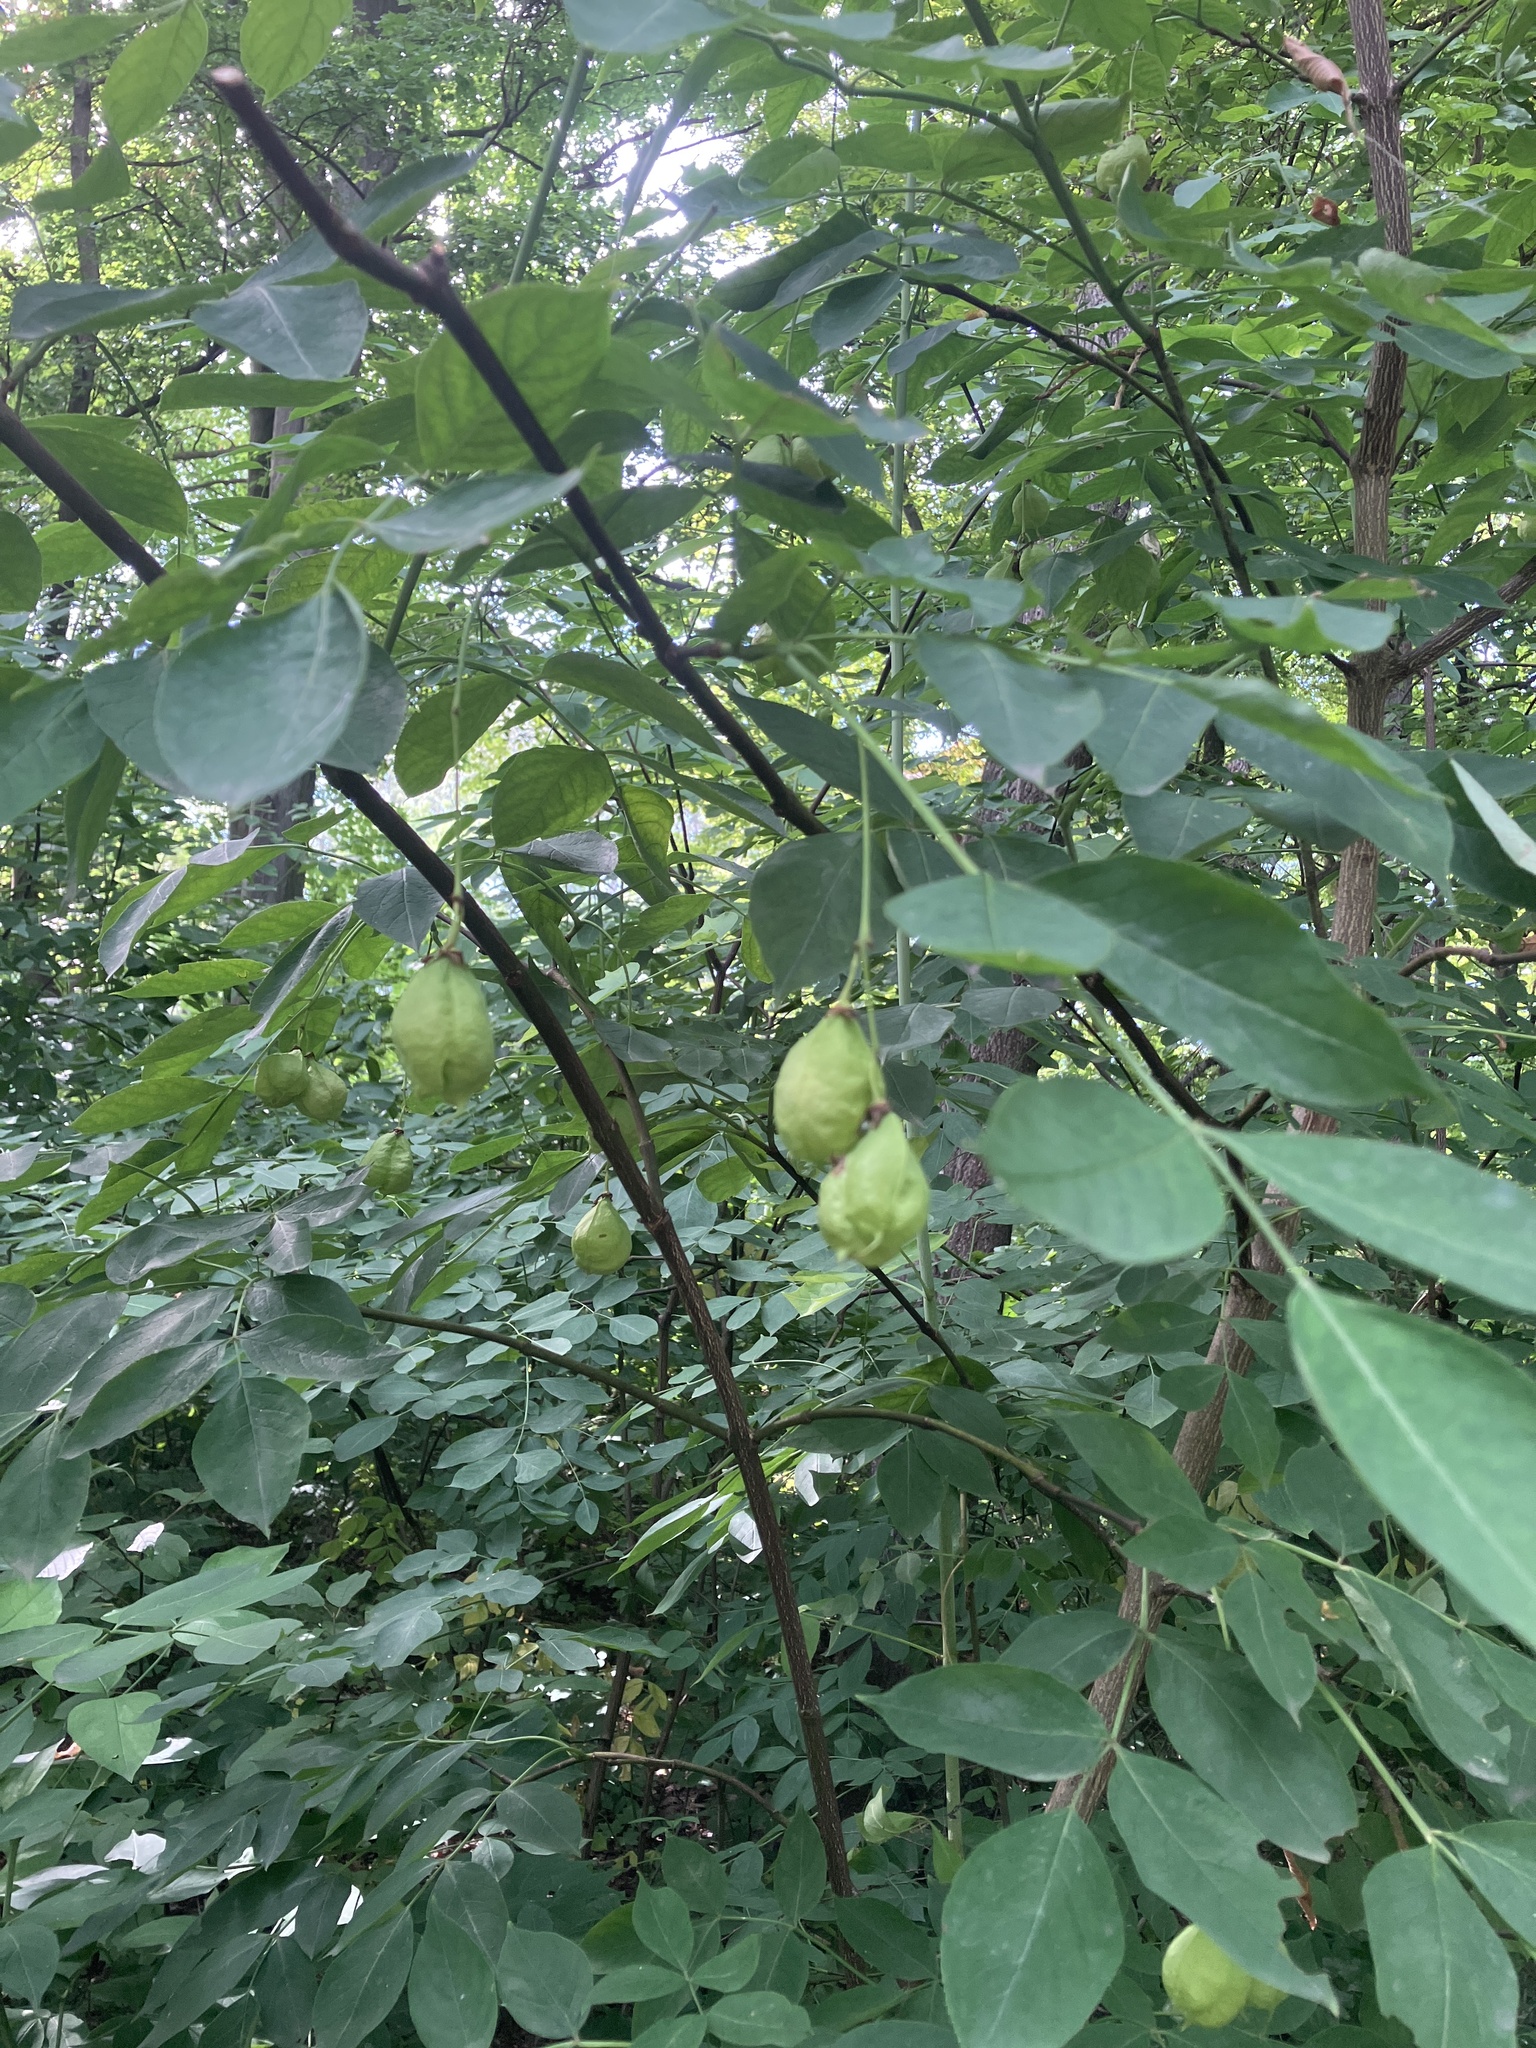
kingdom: Plantae
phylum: Tracheophyta
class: Magnoliopsida
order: Crossosomatales
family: Staphyleaceae
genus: Staphylea
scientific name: Staphylea pinnata
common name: Bladdernut
